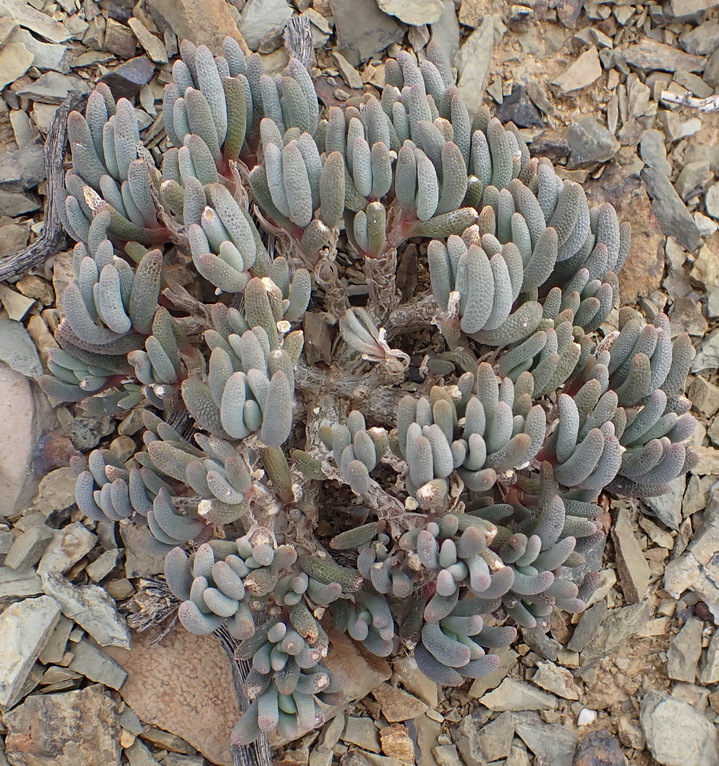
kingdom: Plantae
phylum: Tracheophyta
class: Magnoliopsida
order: Caryophyllales
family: Aizoaceae
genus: Mesembryanthemum
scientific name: Mesembryanthemum grossum
